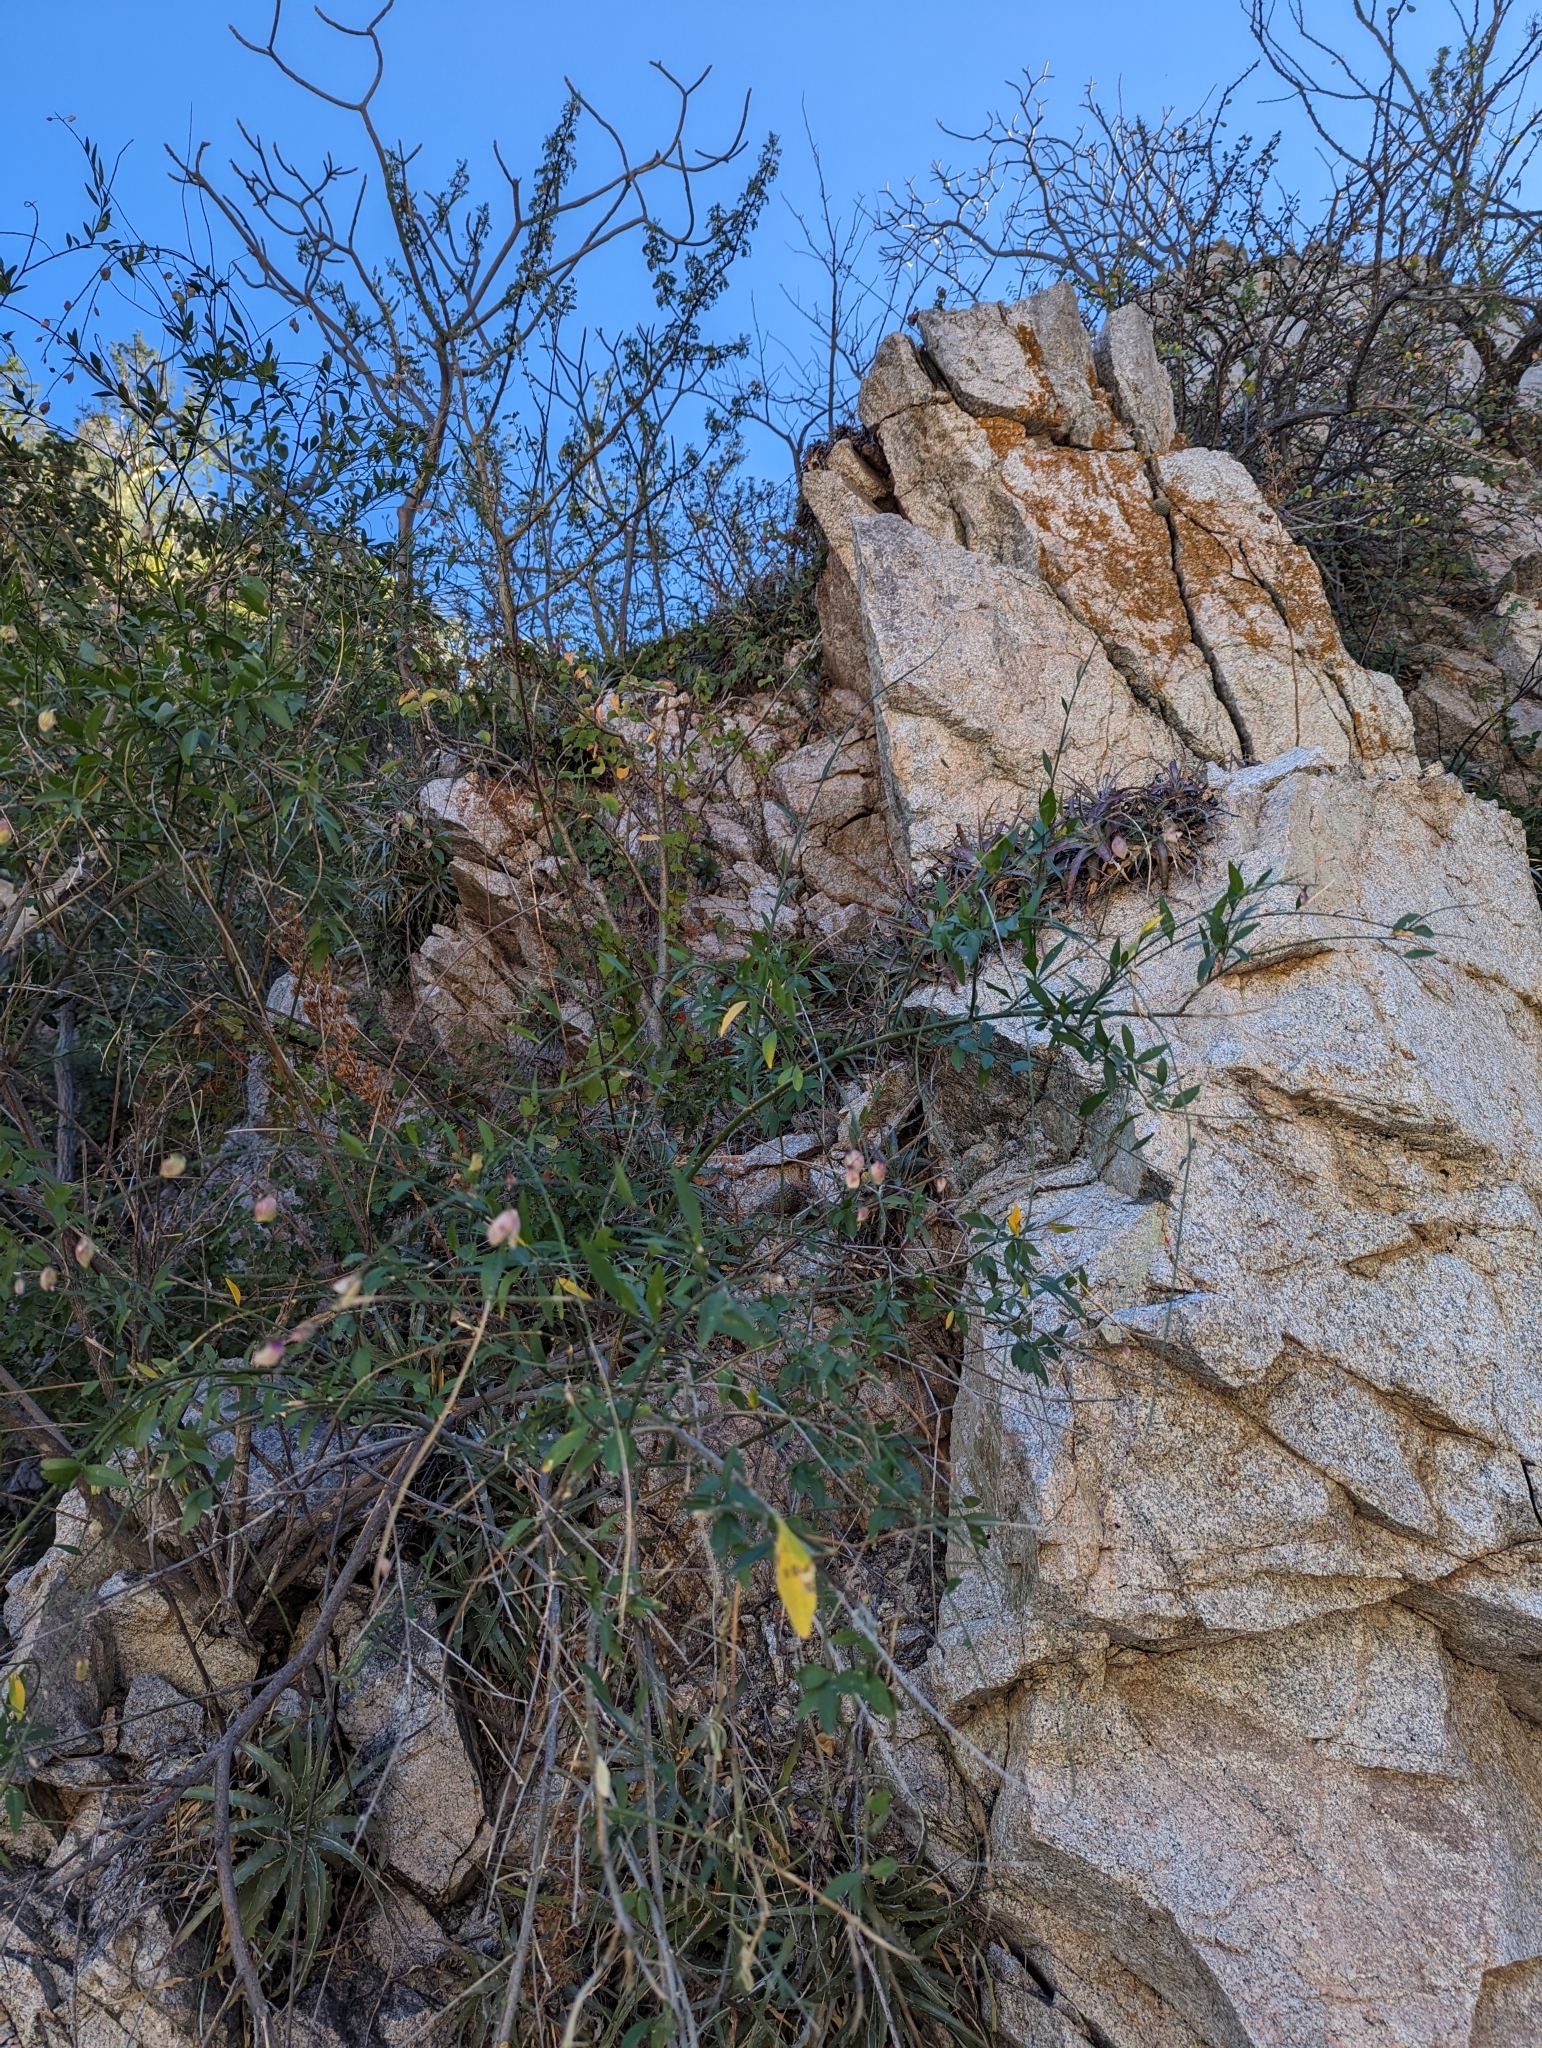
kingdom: Plantae
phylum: Tracheophyta
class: Magnoliopsida
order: Fabales
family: Polygalaceae
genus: Asemeia
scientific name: Asemeia apopetala
